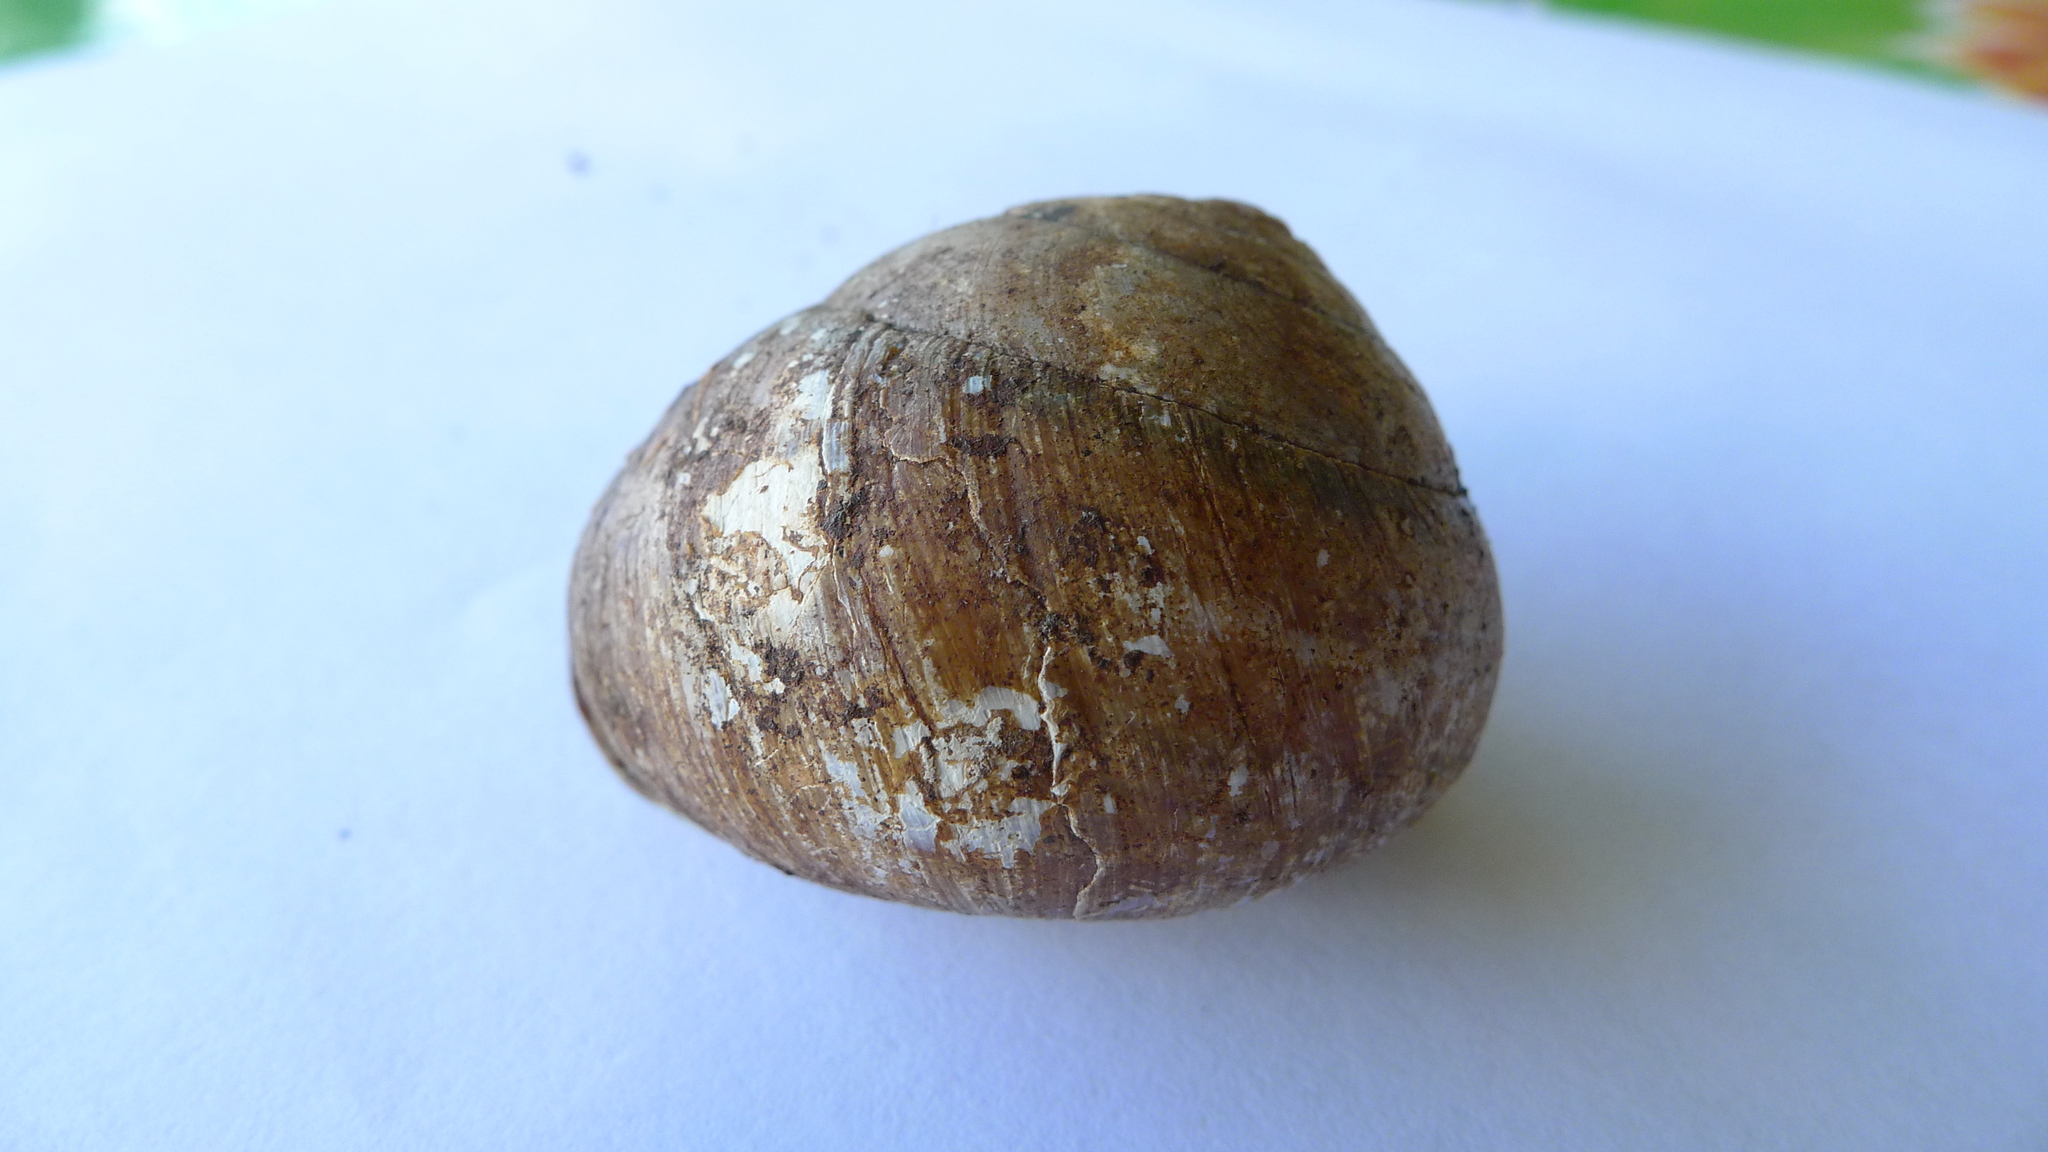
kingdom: Animalia
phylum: Mollusca
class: Gastropoda
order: Stylommatophora
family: Camaenidae
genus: Sphaerospira
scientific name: Sphaerospira fraseri
